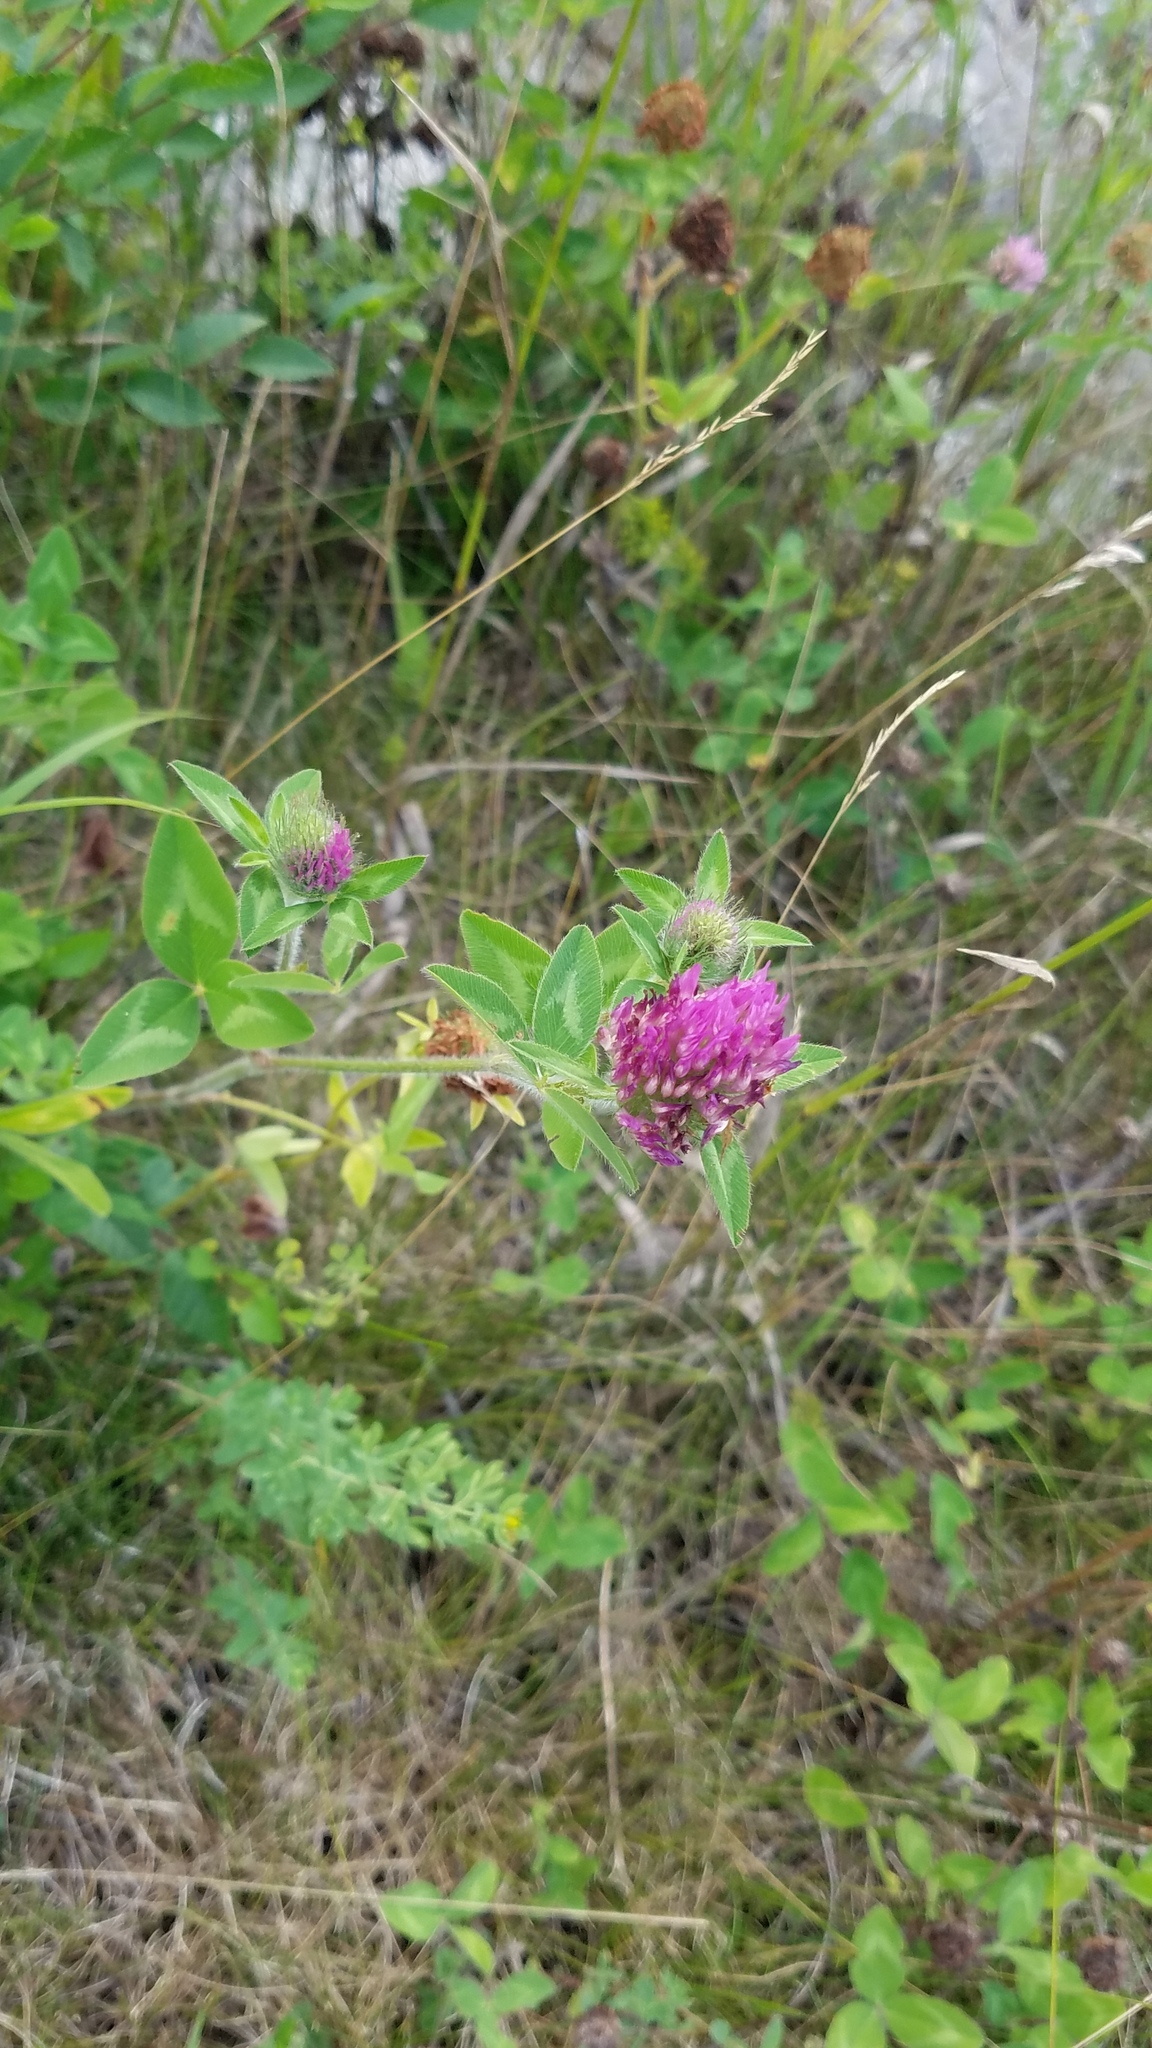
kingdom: Plantae
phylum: Tracheophyta
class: Magnoliopsida
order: Fabales
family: Fabaceae
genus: Trifolium
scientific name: Trifolium pratense
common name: Red clover
